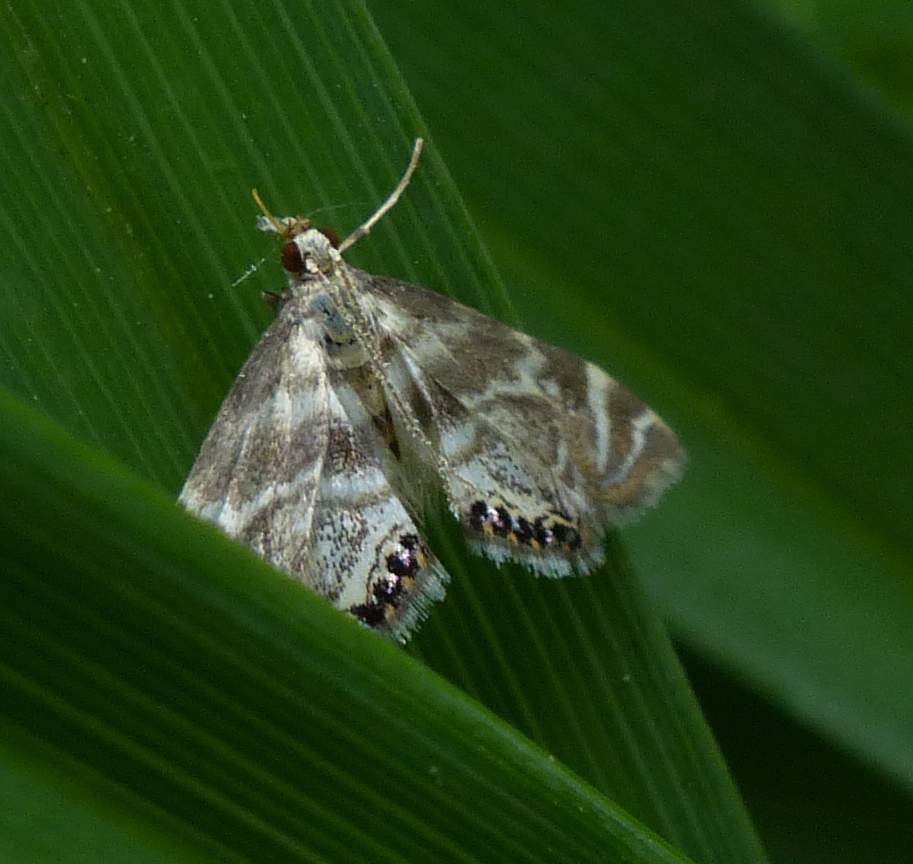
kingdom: Animalia
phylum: Arthropoda
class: Insecta
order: Lepidoptera
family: Crambidae
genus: Petrophila
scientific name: Petrophila canadensis
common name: Canadian petrophila
